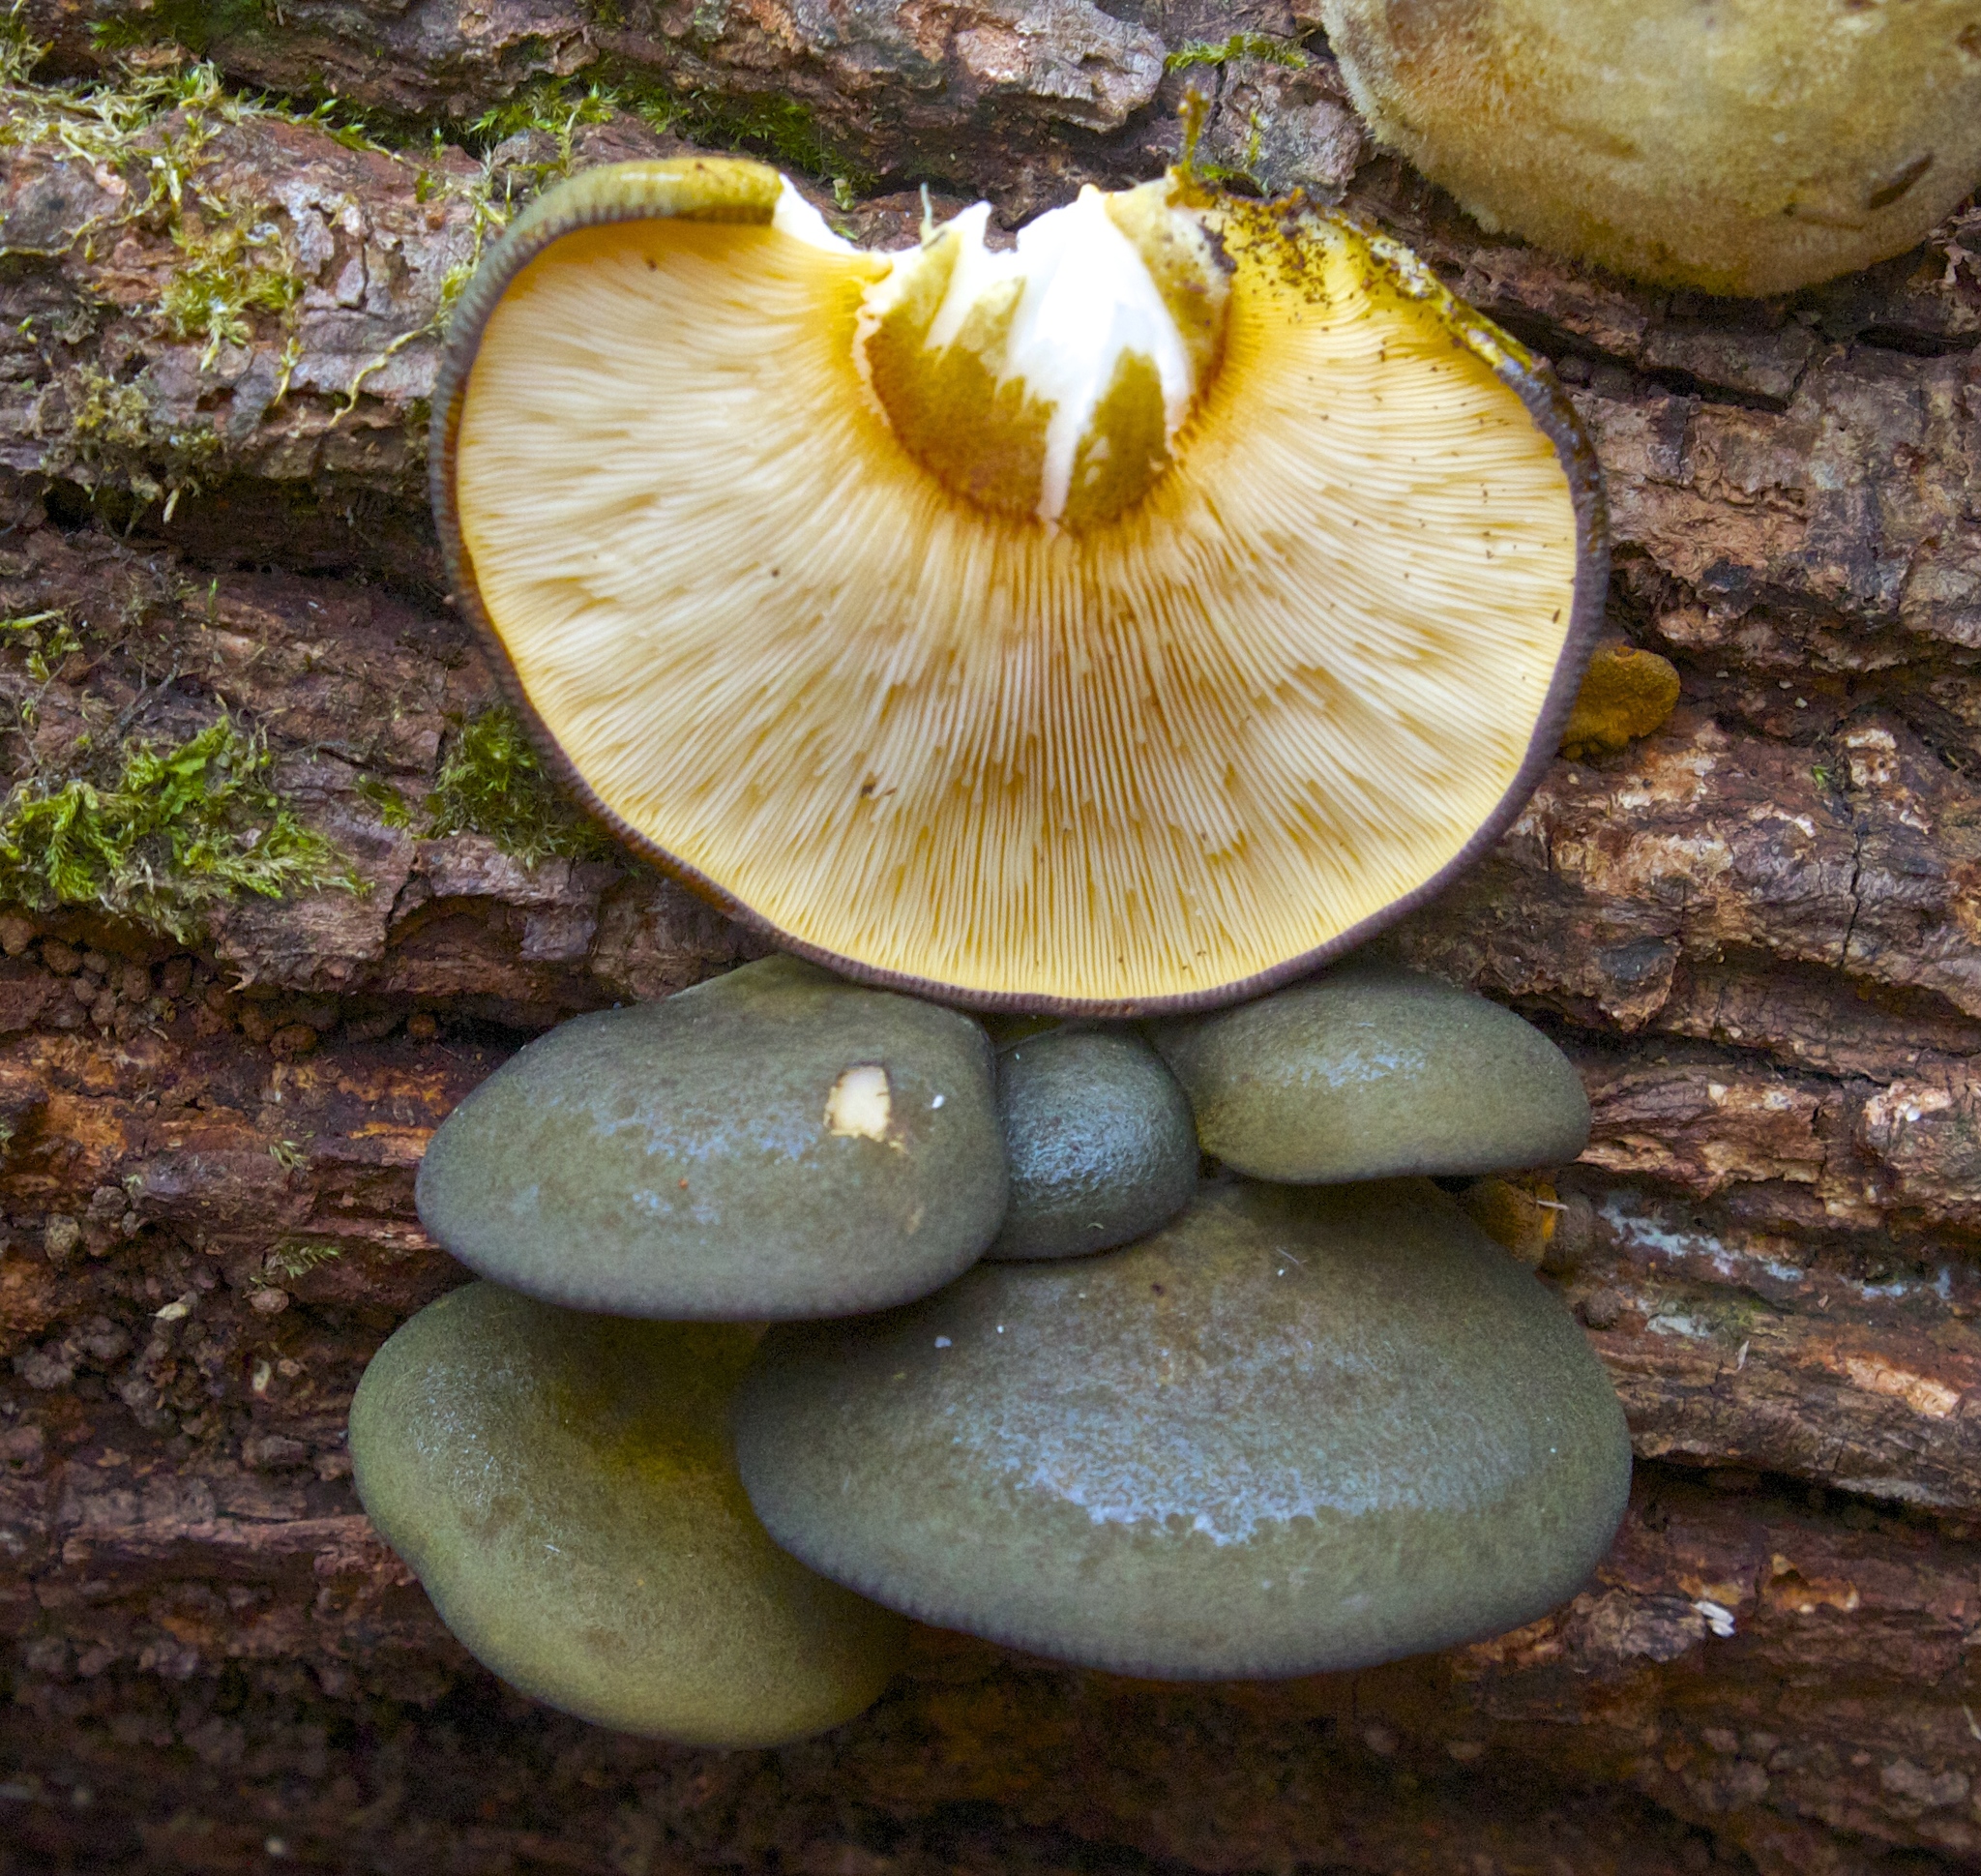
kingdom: Fungi
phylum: Basidiomycota
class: Agaricomycetes
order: Agaricales
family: Sarcomyxaceae
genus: Sarcomyxa
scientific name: Sarcomyxa serotina
